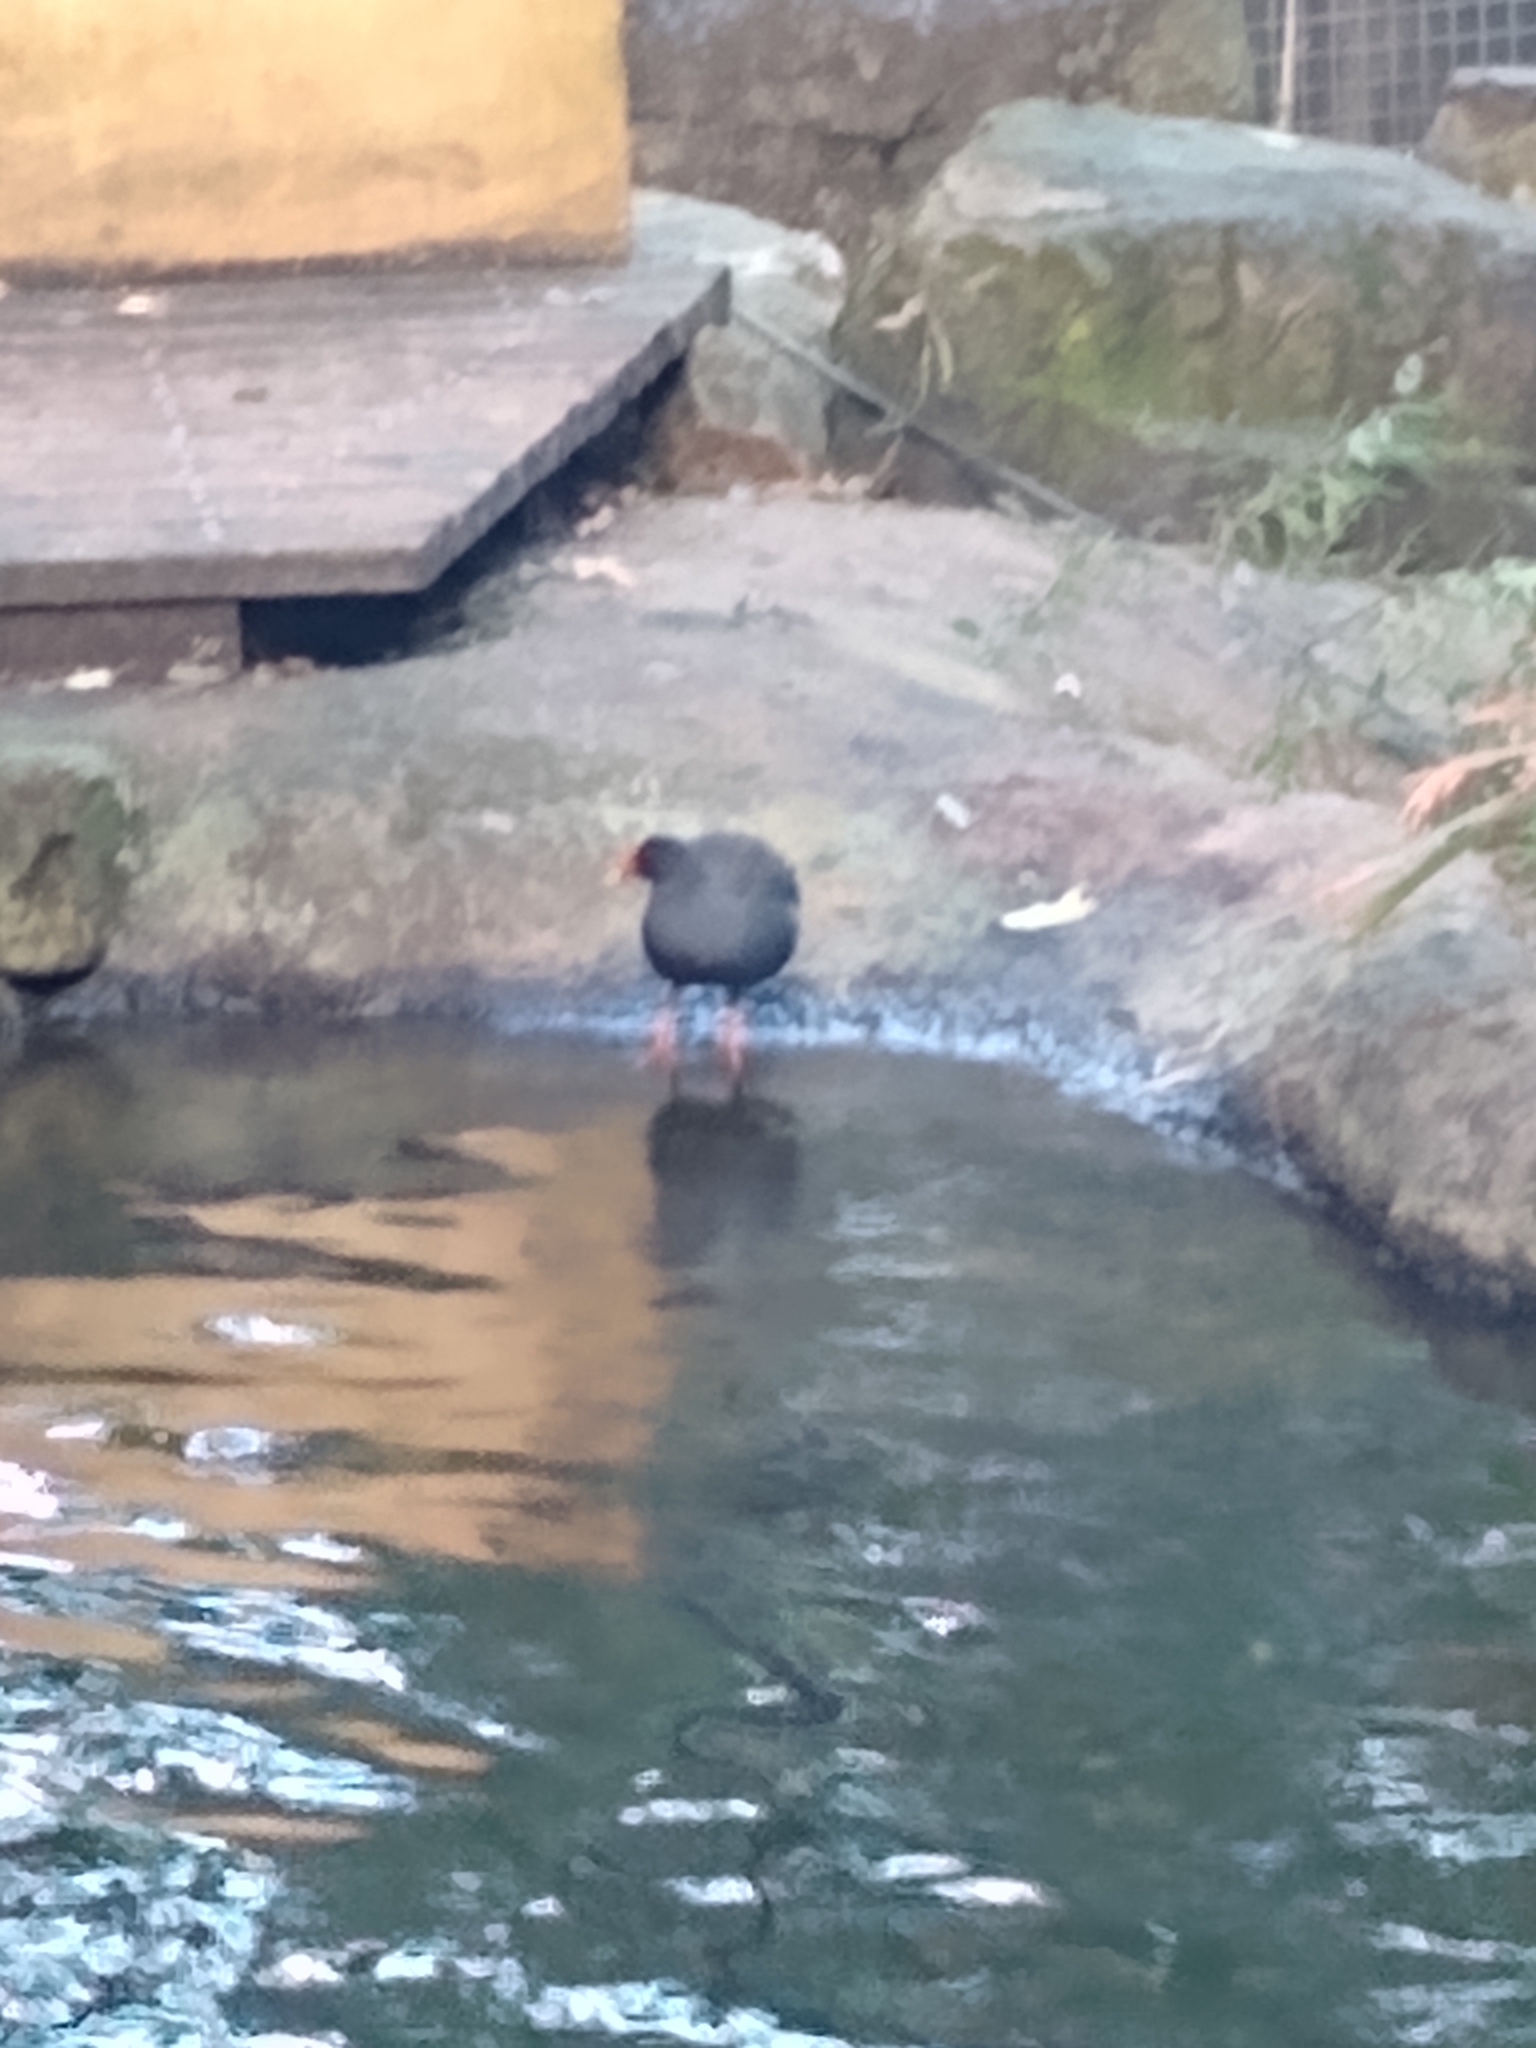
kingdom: Animalia
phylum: Chordata
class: Aves
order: Gruiformes
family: Rallidae
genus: Gallinula
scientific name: Gallinula tenebrosa
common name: Dusky moorhen
